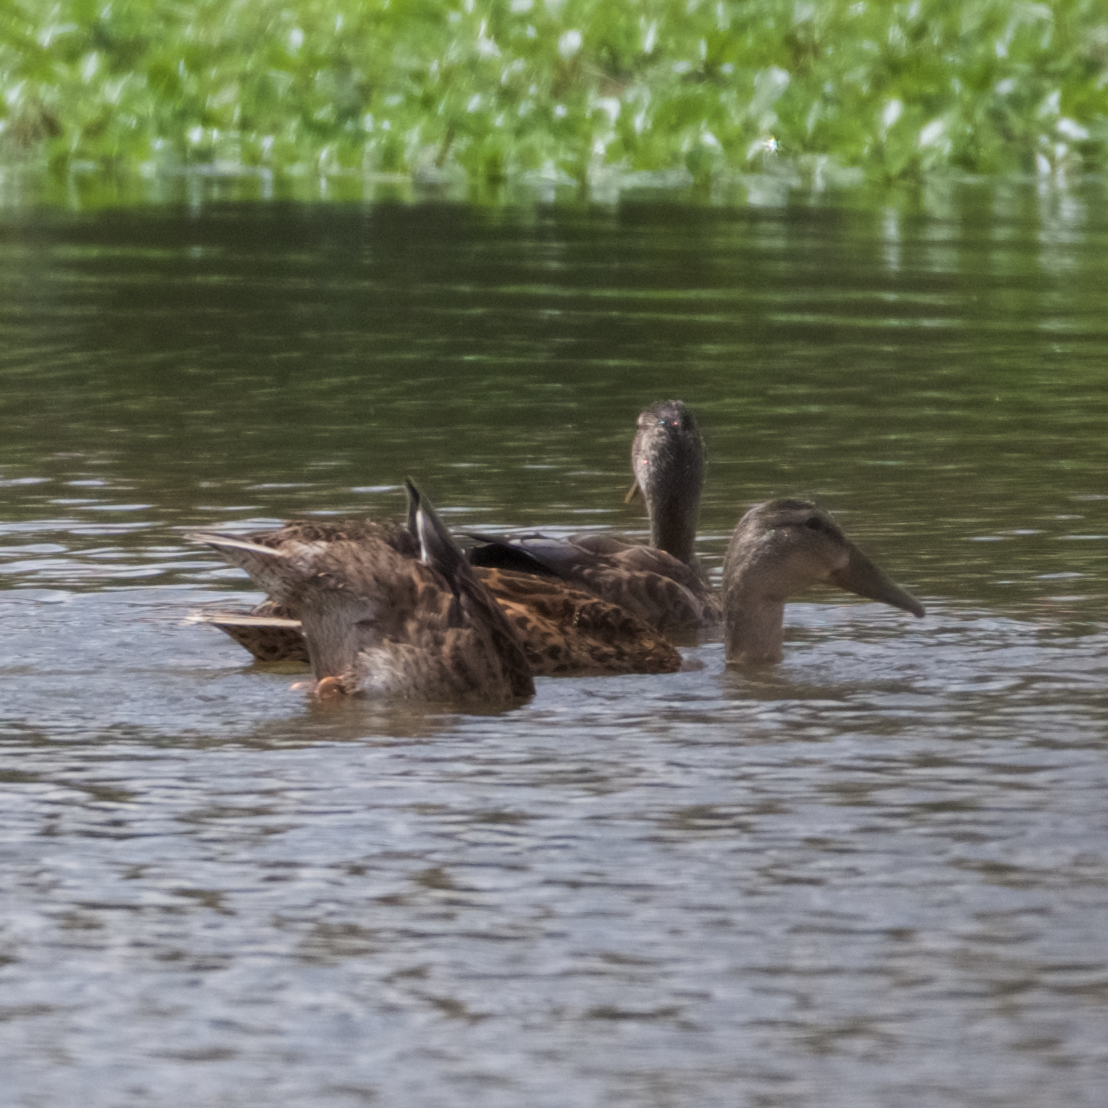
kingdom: Animalia
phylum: Chordata
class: Aves
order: Anseriformes
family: Anatidae
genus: Anas
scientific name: Anas platyrhynchos
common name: Mallard
